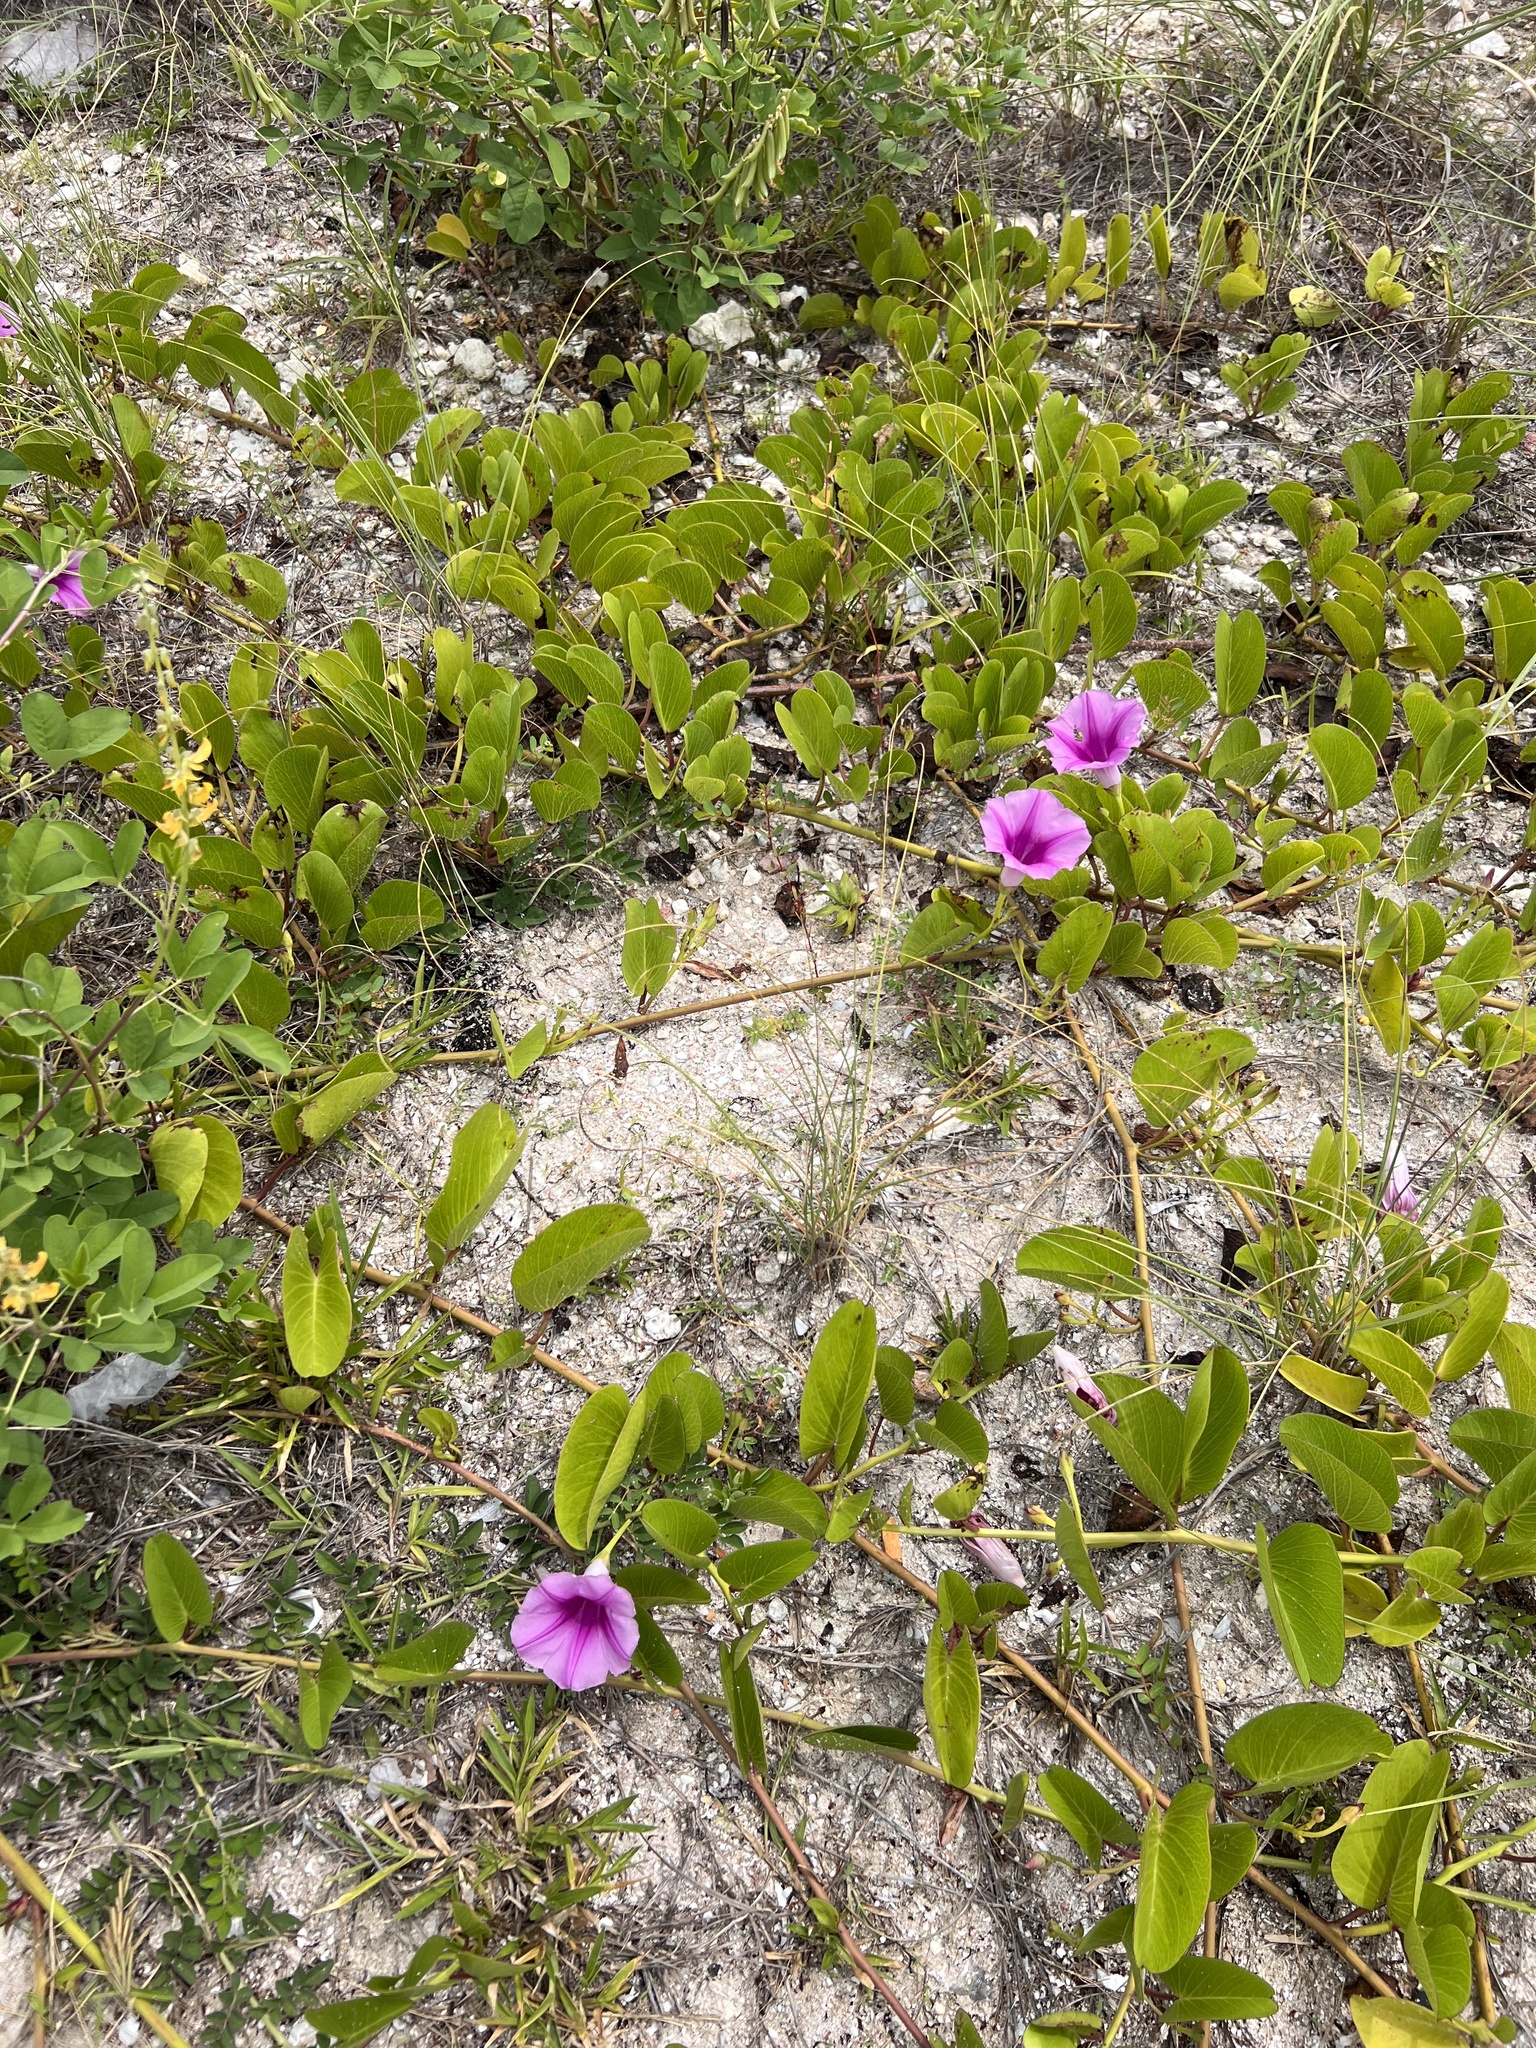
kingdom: Plantae
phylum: Tracheophyta
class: Magnoliopsida
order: Solanales
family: Convolvulaceae
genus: Ipomoea
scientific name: Ipomoea pes-caprae
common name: Beach morning glory
